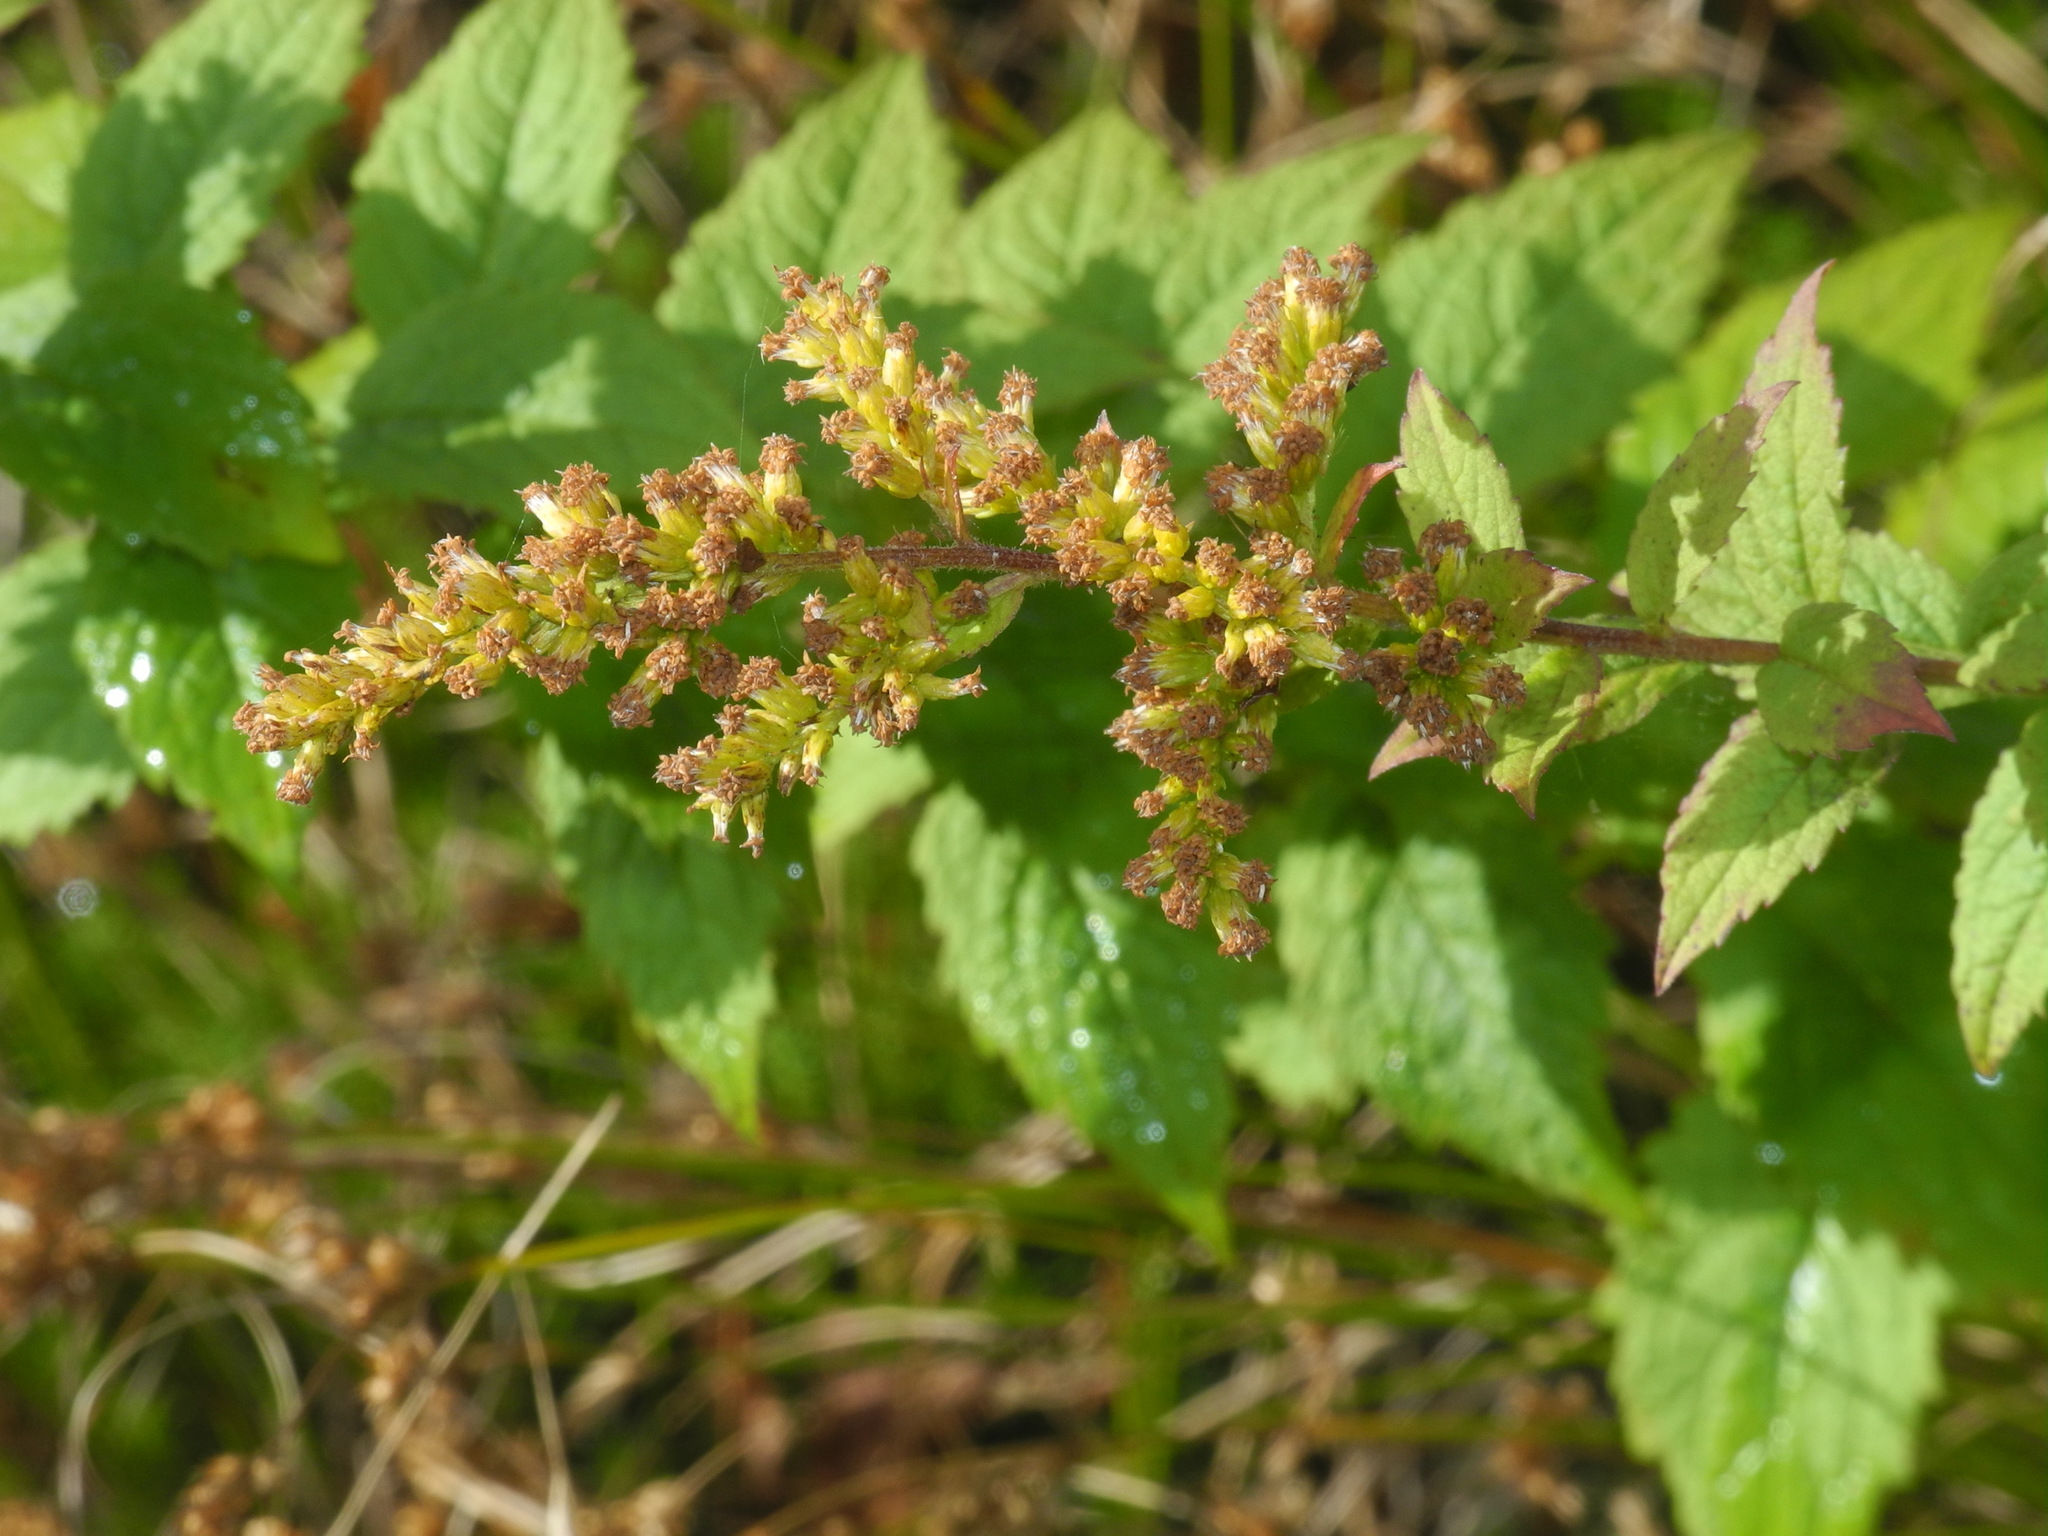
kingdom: Plantae
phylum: Tracheophyta
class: Magnoliopsida
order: Asterales
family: Asteraceae
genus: Solidago
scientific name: Solidago rugosa
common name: Rough-stemmed goldenrod
